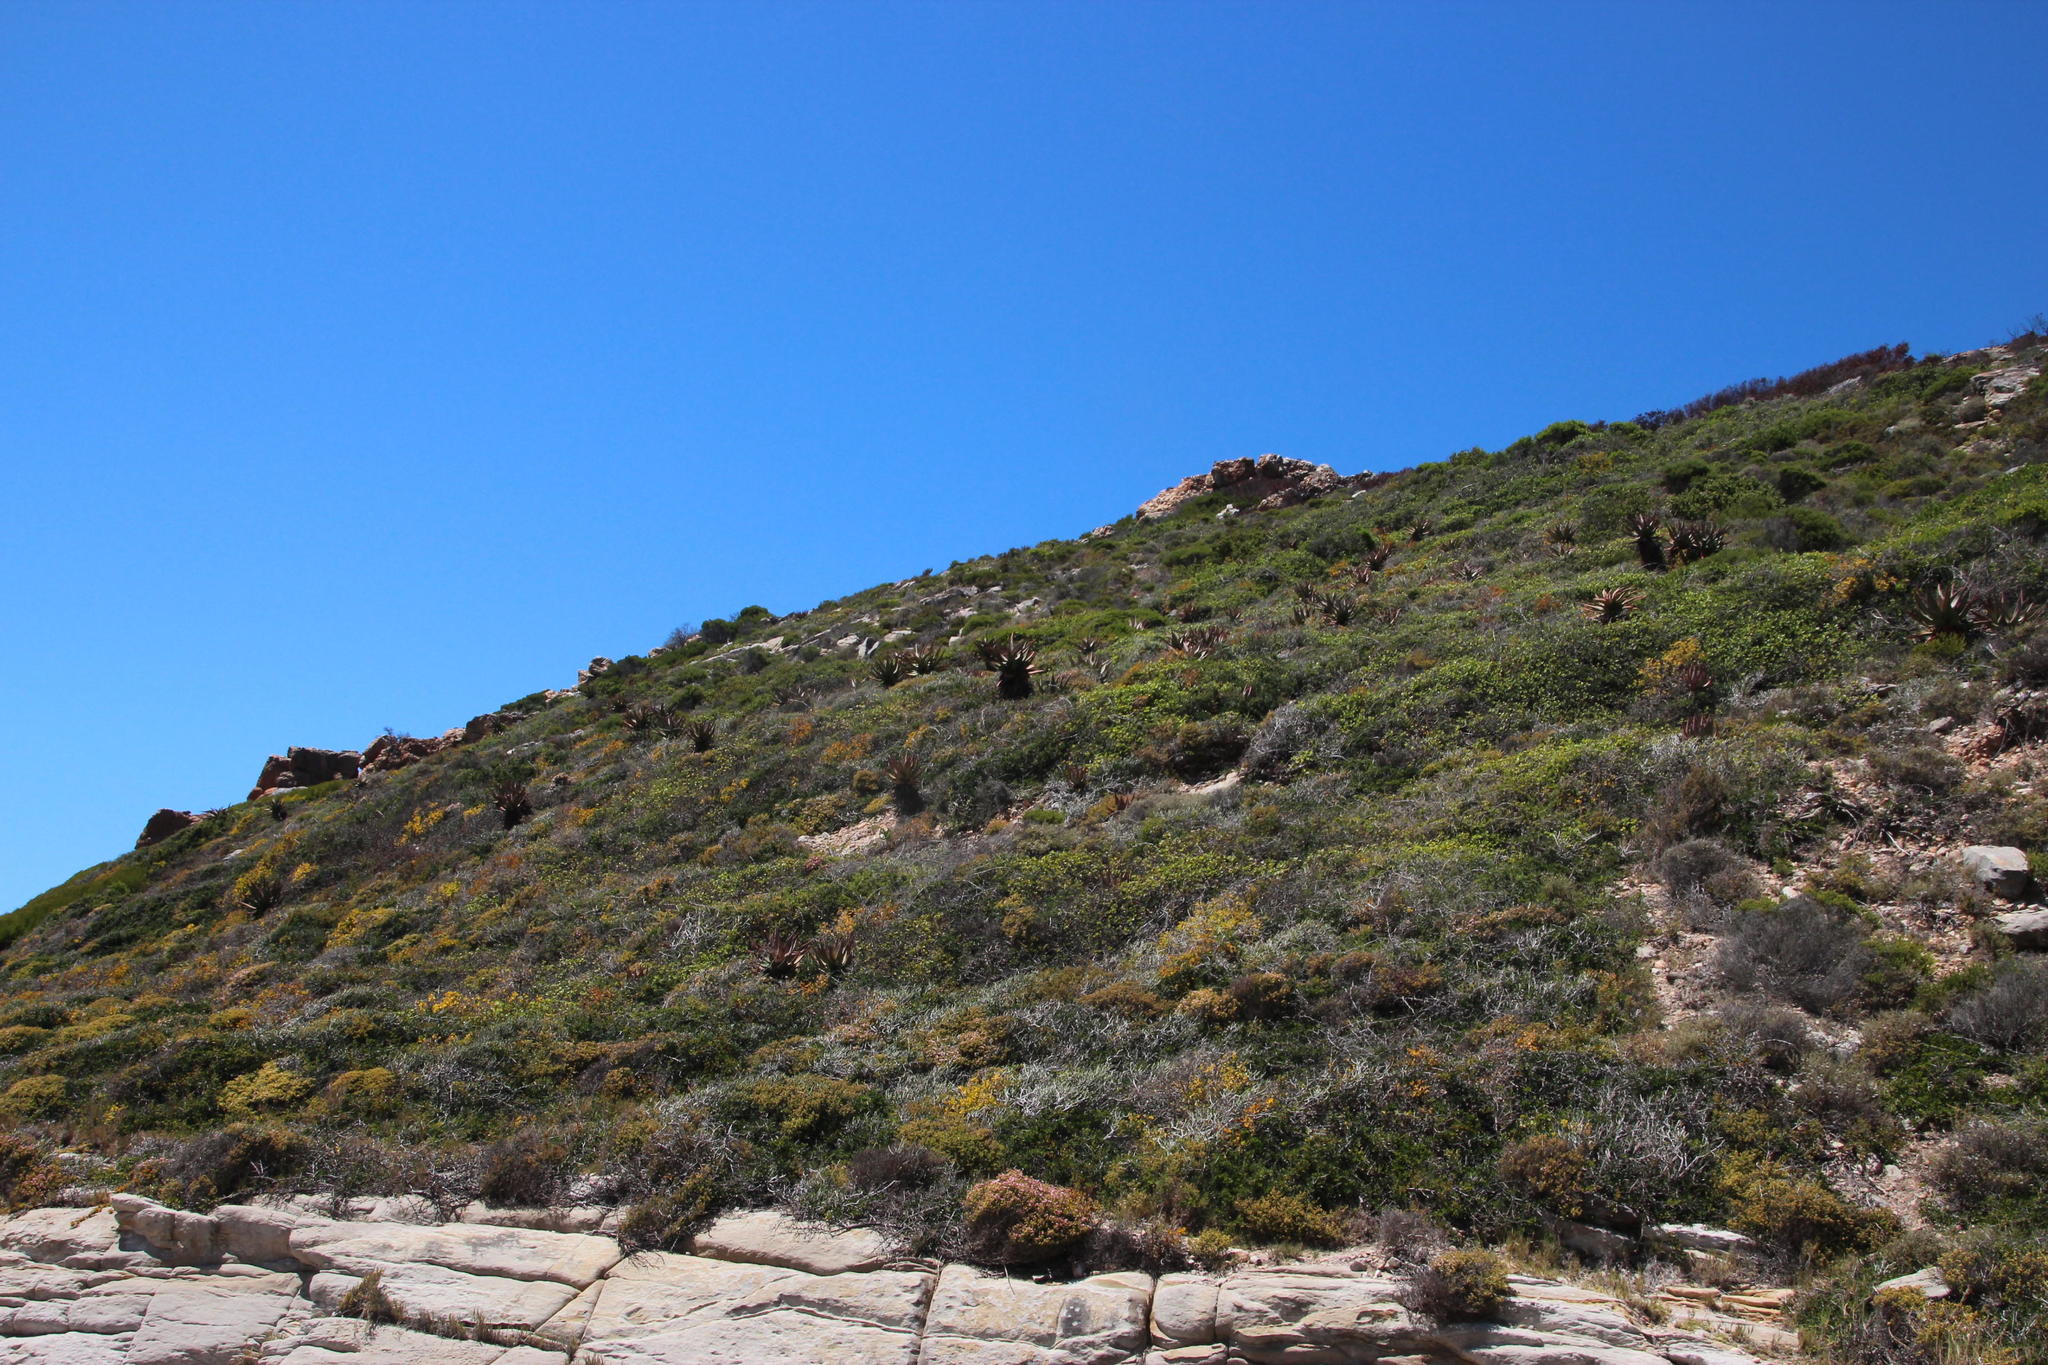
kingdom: Plantae
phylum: Tracheophyta
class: Liliopsida
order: Asparagales
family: Asphodelaceae
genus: Aloe
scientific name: Aloe ferox
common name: Bitter aloe
